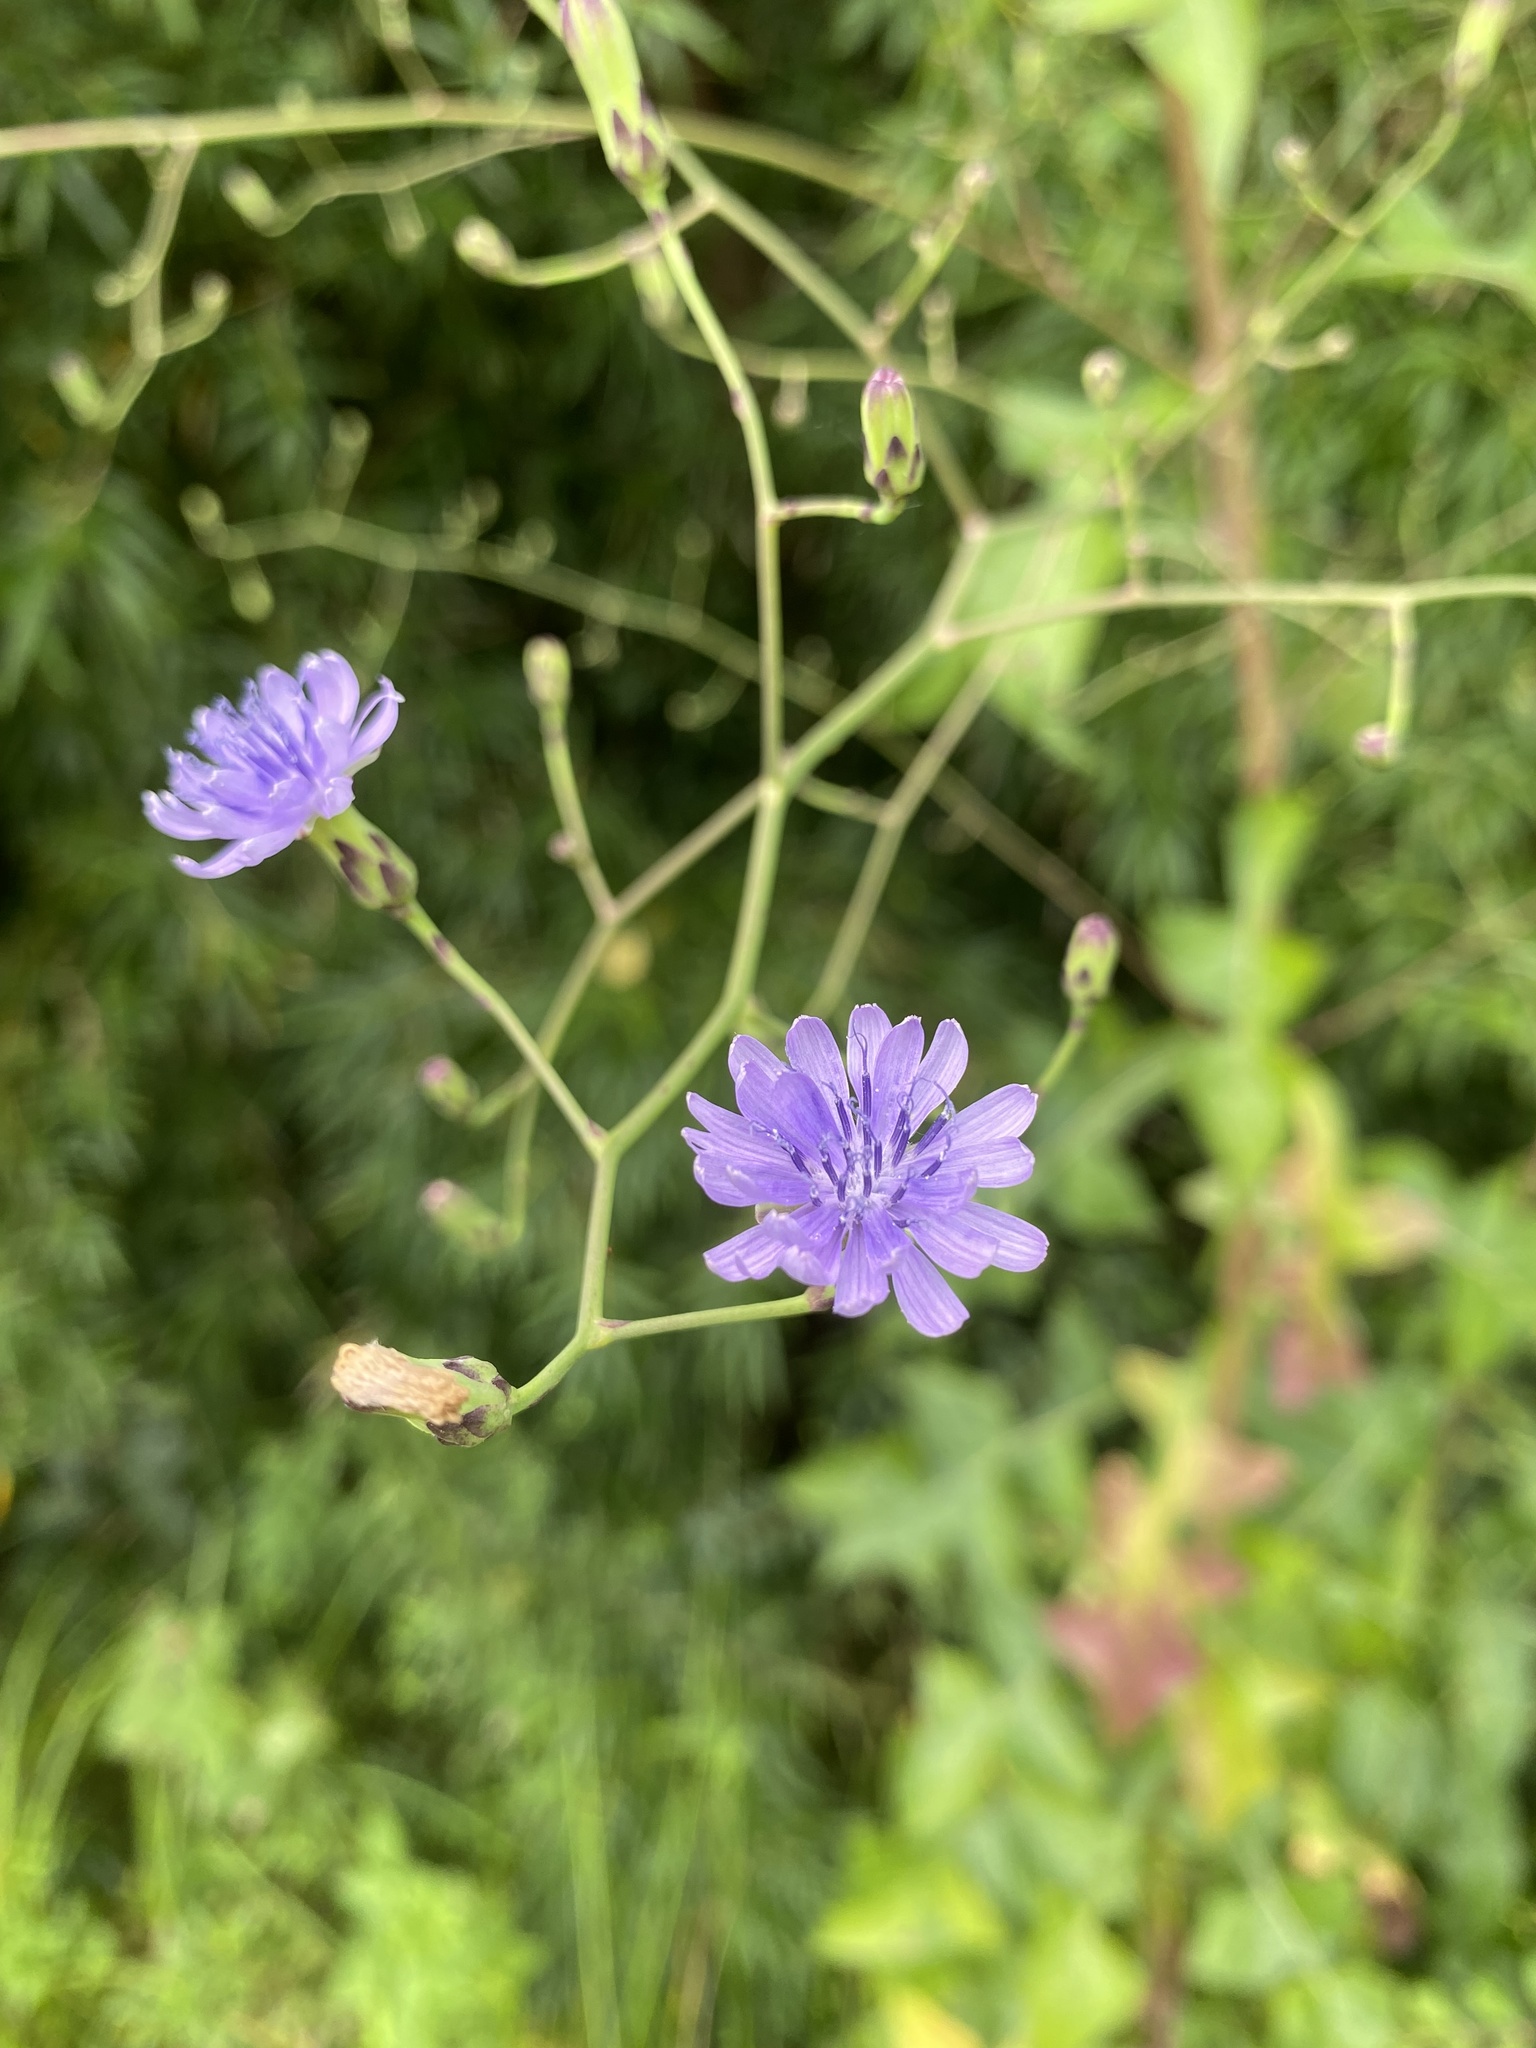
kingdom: Plantae
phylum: Tracheophyta
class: Magnoliopsida
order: Asterales
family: Asteraceae
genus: Lactuca
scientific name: Lactuca floridana
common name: Woodland lettuce
